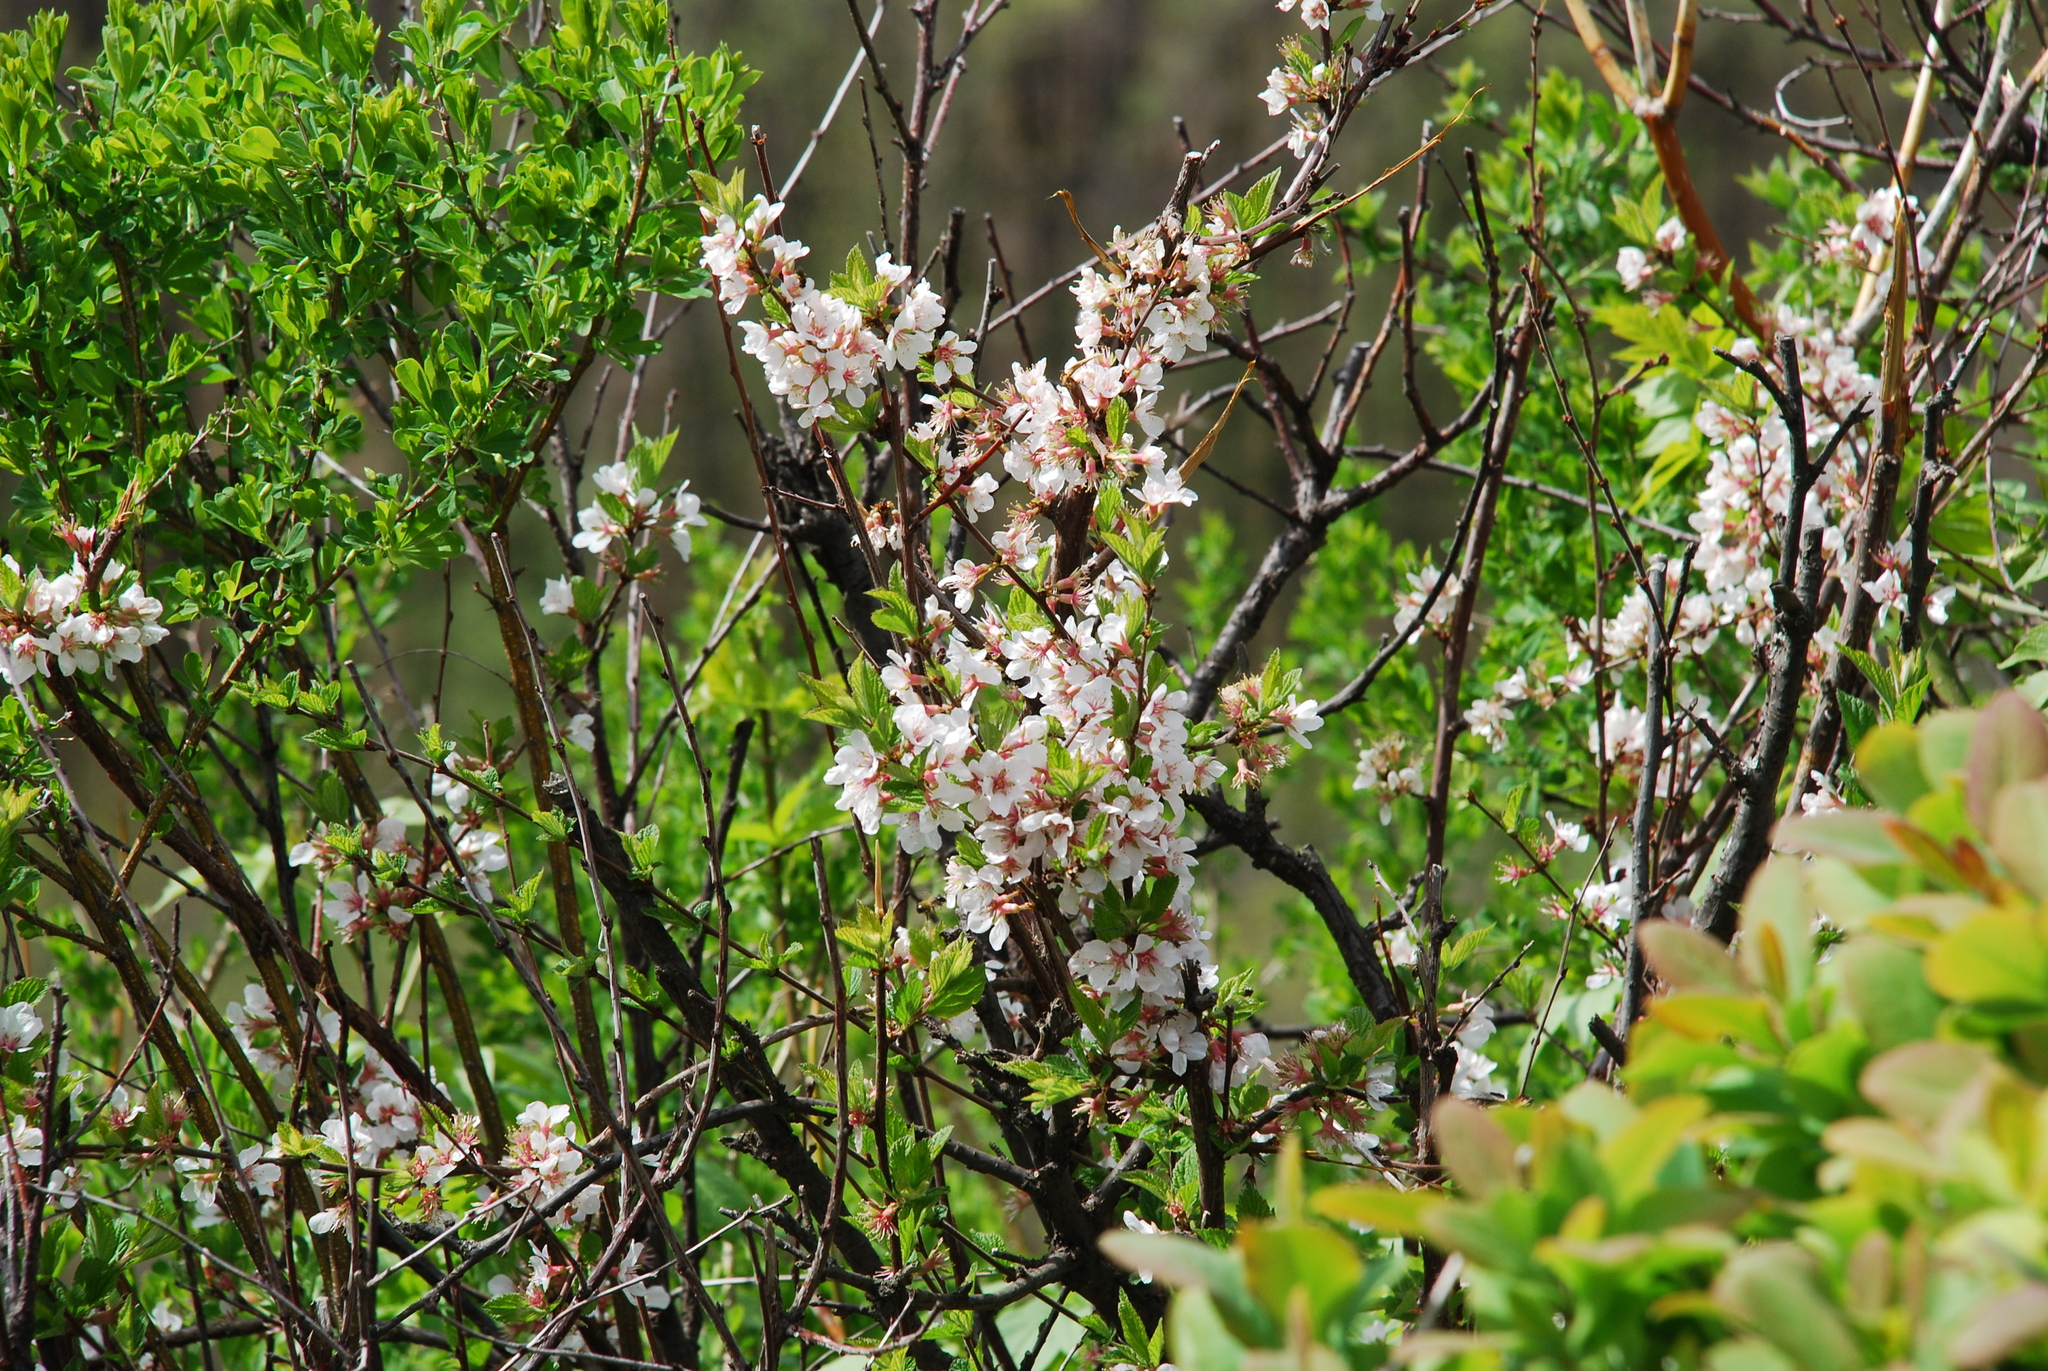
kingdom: Plantae
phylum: Tracheophyta
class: Magnoliopsida
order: Rosales
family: Rosaceae
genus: Prunus
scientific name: Prunus tomentosa
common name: Nanking cherry
